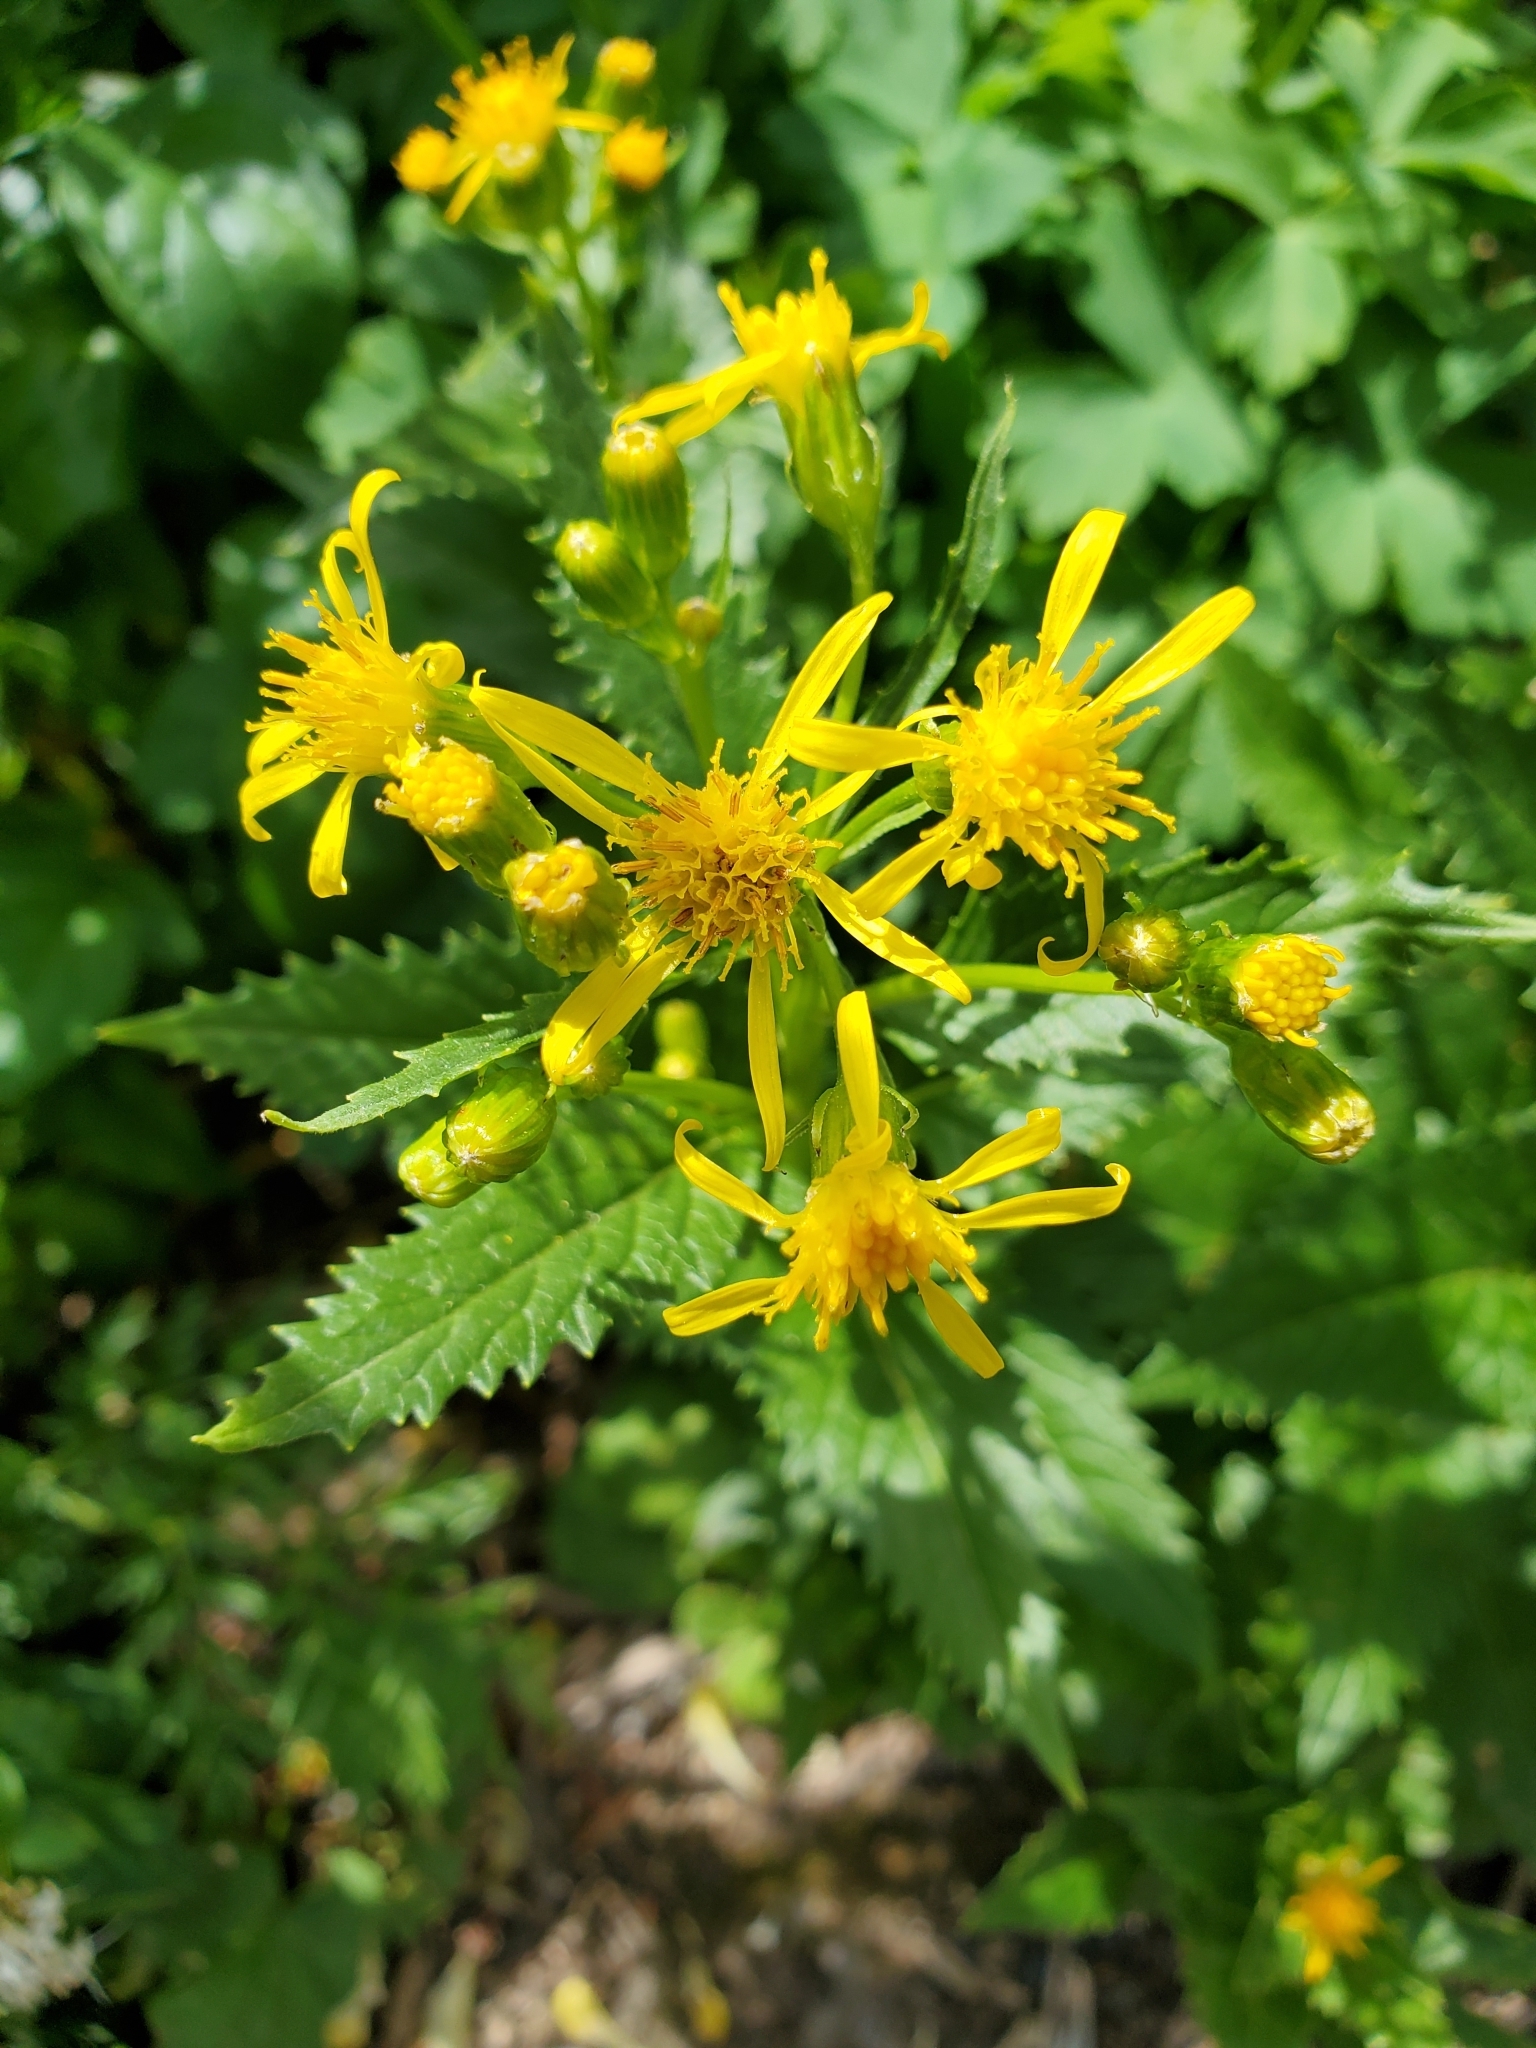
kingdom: Plantae
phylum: Tracheophyta
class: Magnoliopsida
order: Asterales
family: Asteraceae
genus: Senecio
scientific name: Senecio triangularis
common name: Arrowleaf butterweed
